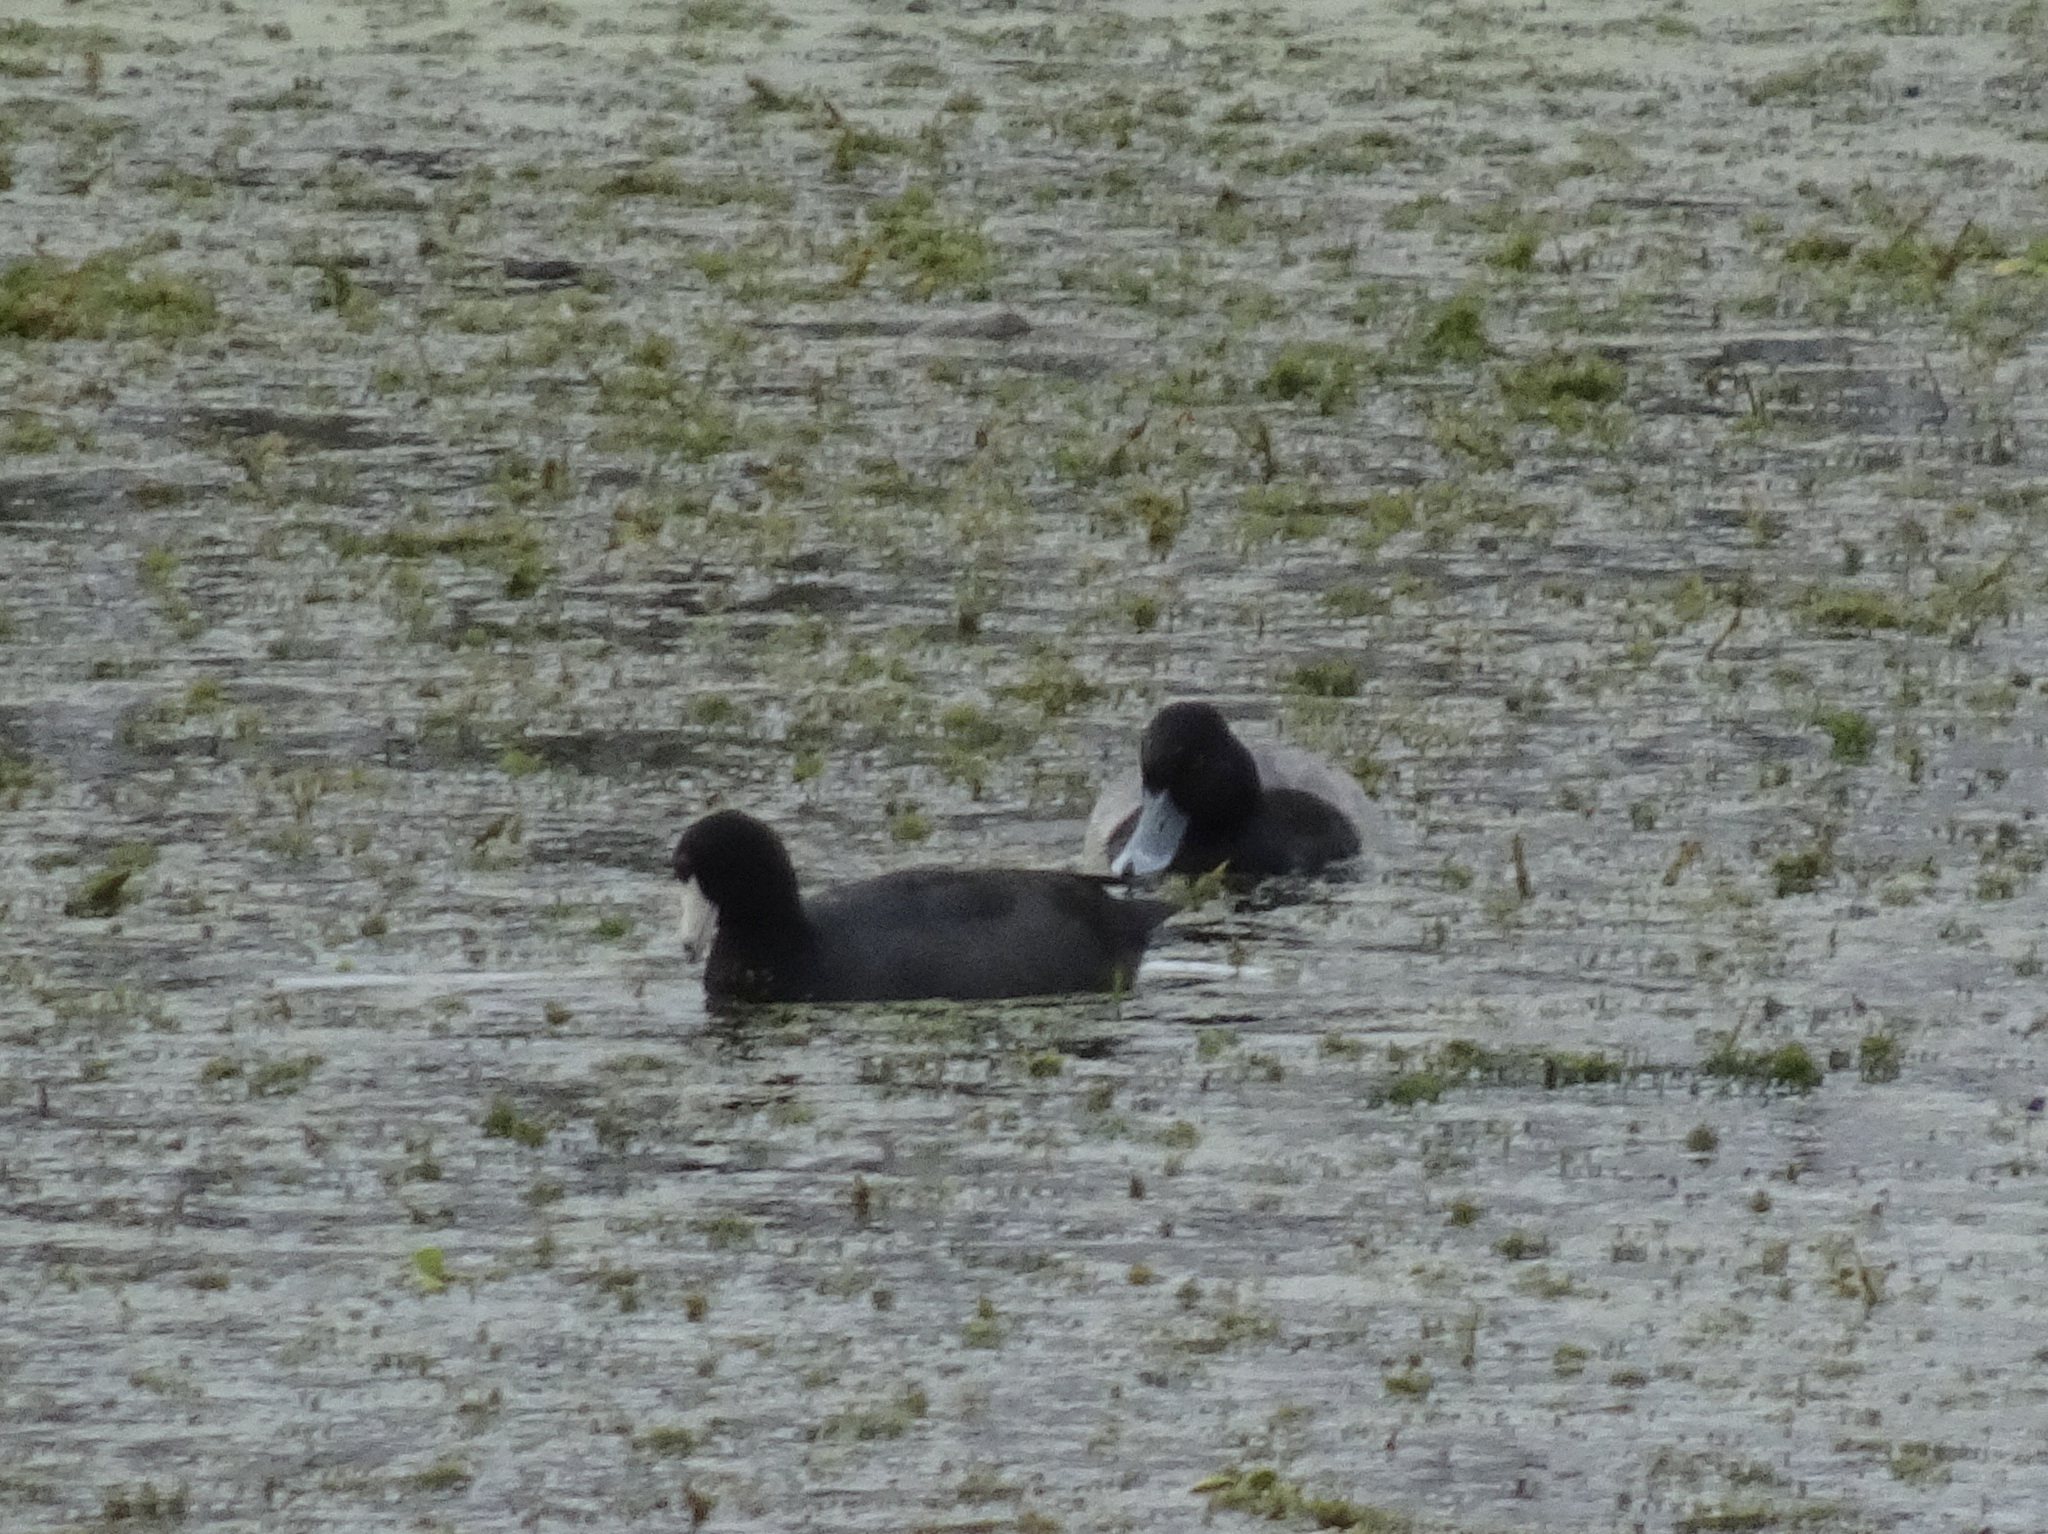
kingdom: Animalia
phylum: Chordata
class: Aves
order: Anseriformes
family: Anatidae
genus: Aythya
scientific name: Aythya affinis
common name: Lesser scaup
